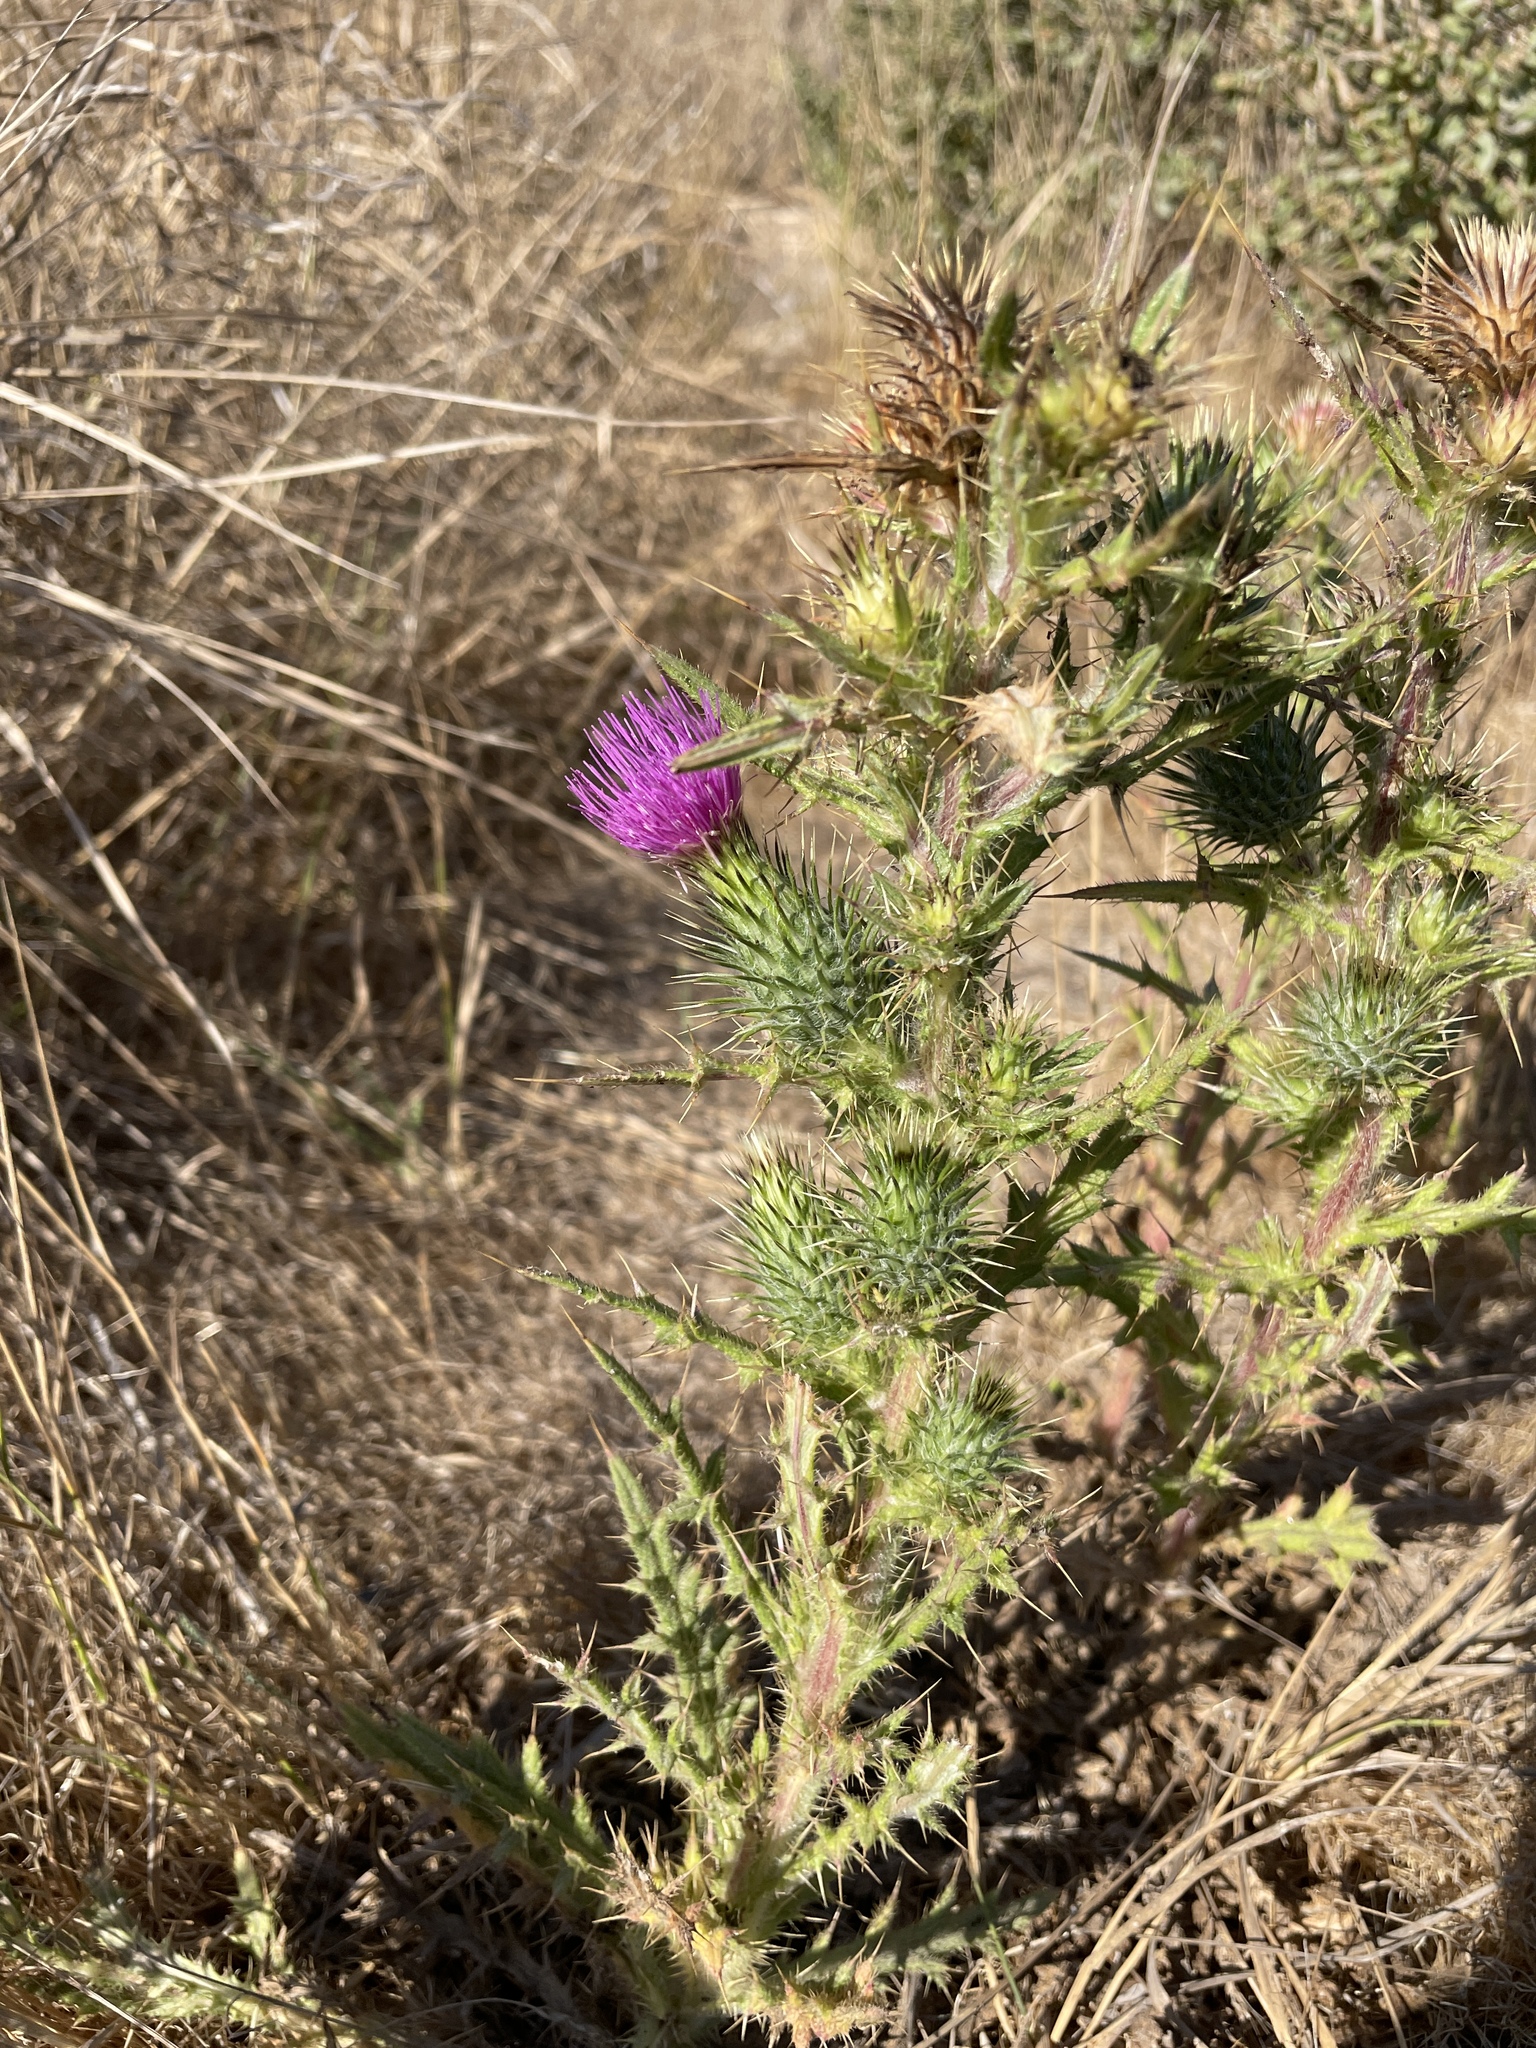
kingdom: Plantae
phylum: Tracheophyta
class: Magnoliopsida
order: Asterales
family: Asteraceae
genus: Cirsium
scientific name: Cirsium vulgare
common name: Bull thistle
